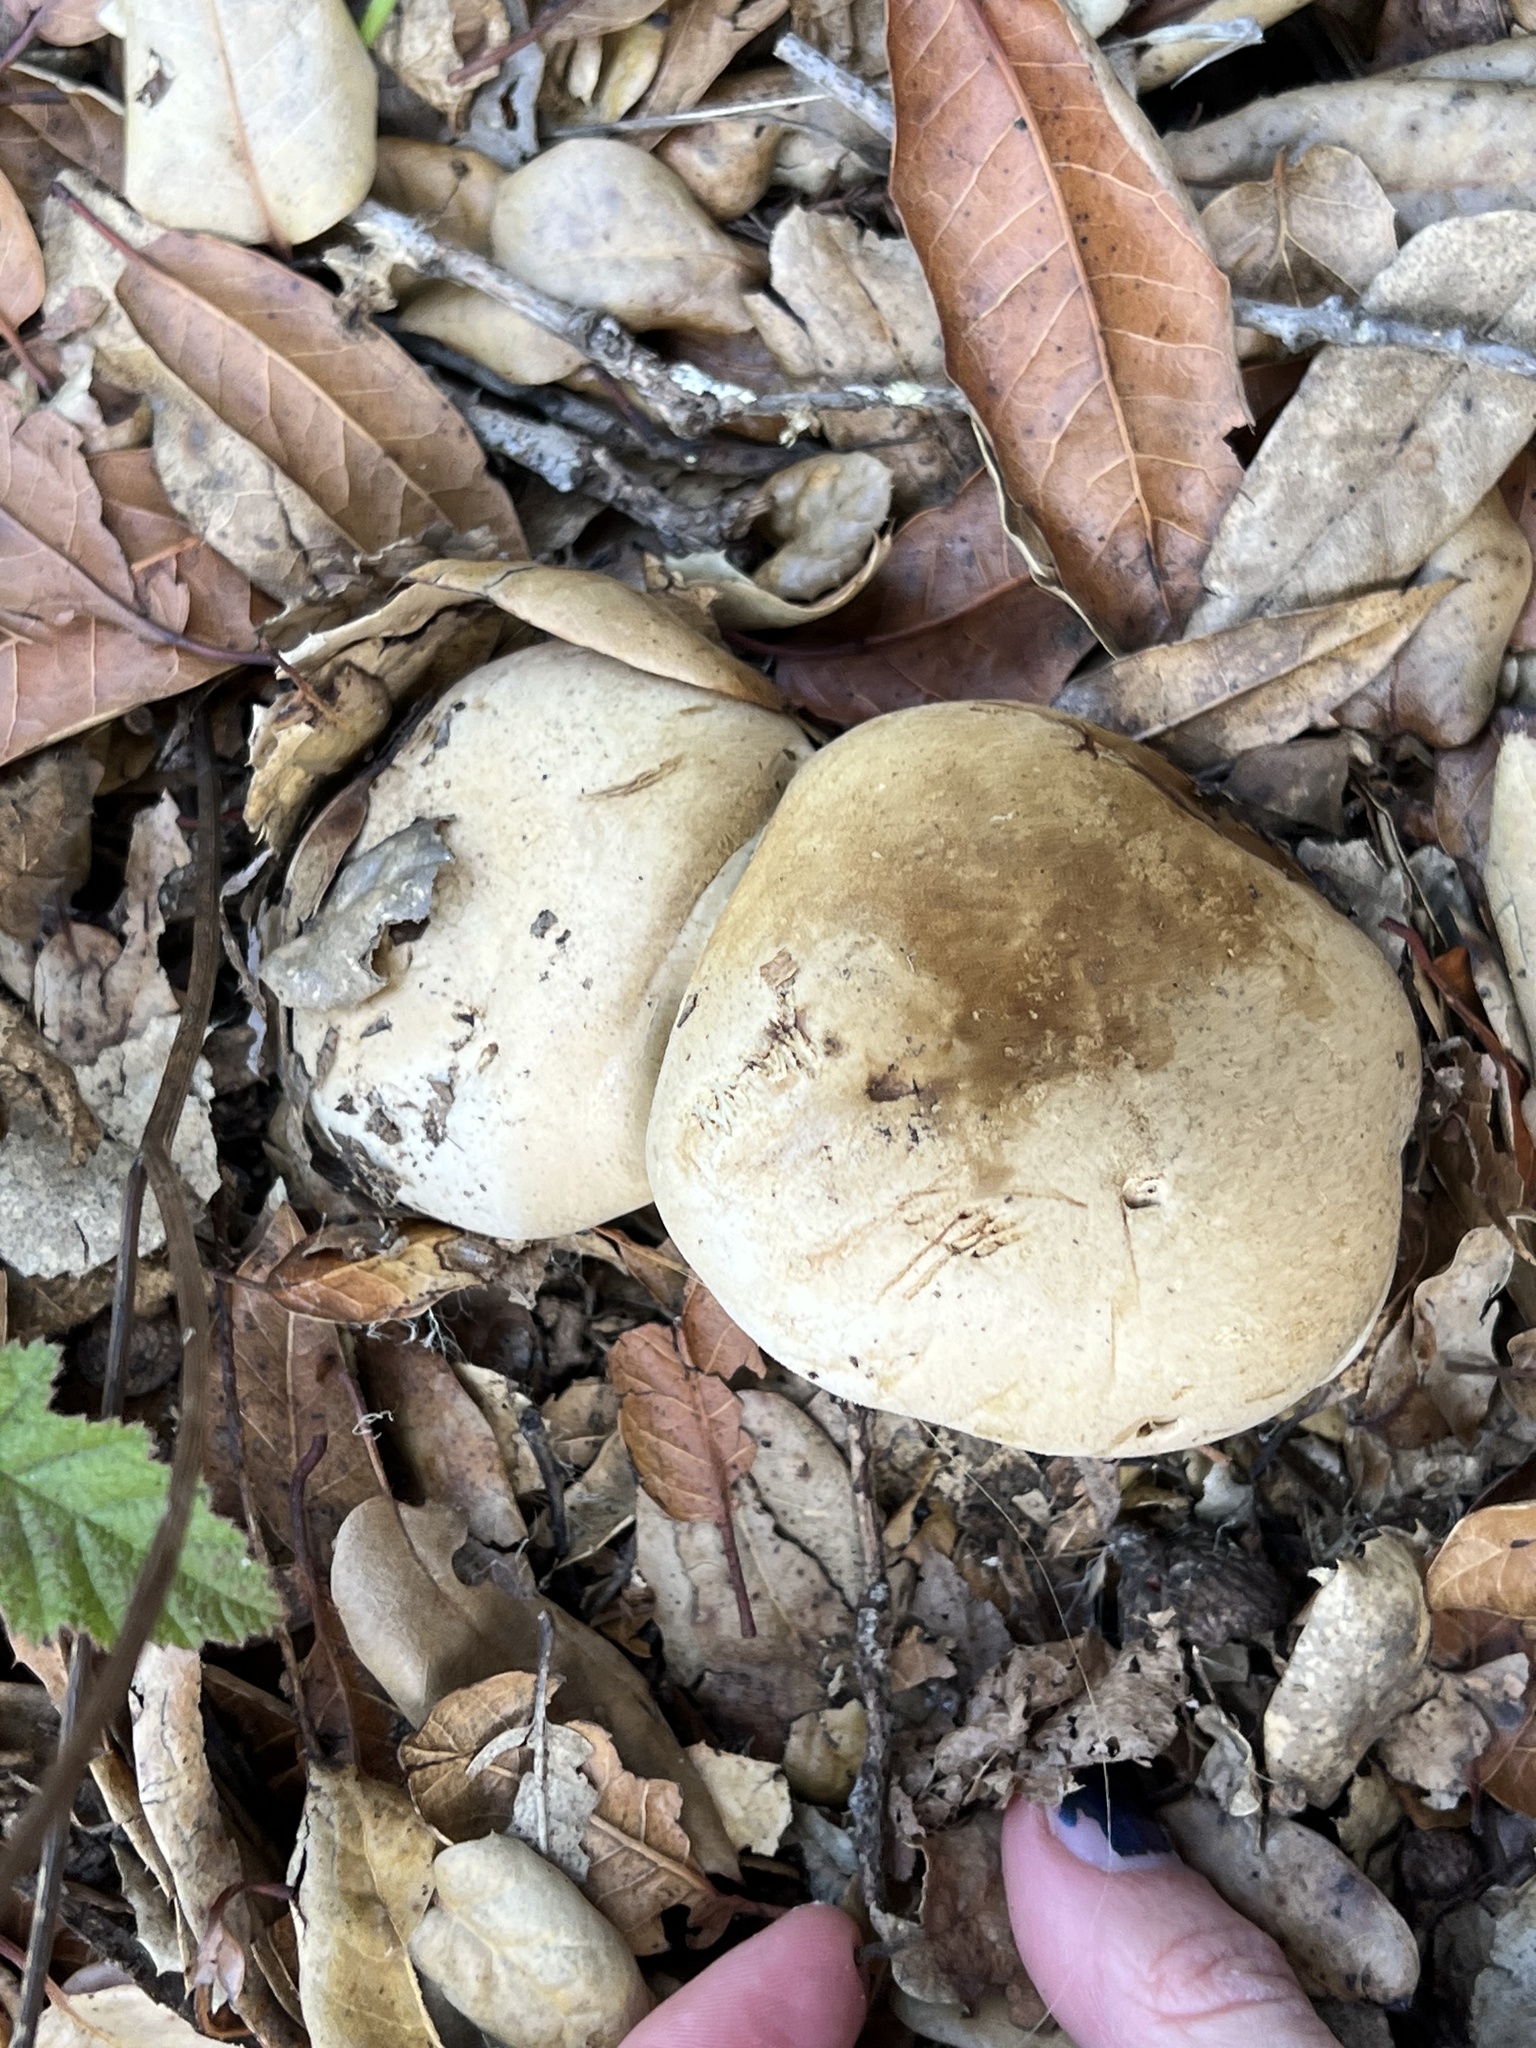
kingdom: Fungi
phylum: Basidiomycota
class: Agaricomycetes
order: Boletales
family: Boletaceae
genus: Caloboletus
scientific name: Caloboletus marshii
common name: Ben's bitter bolete
